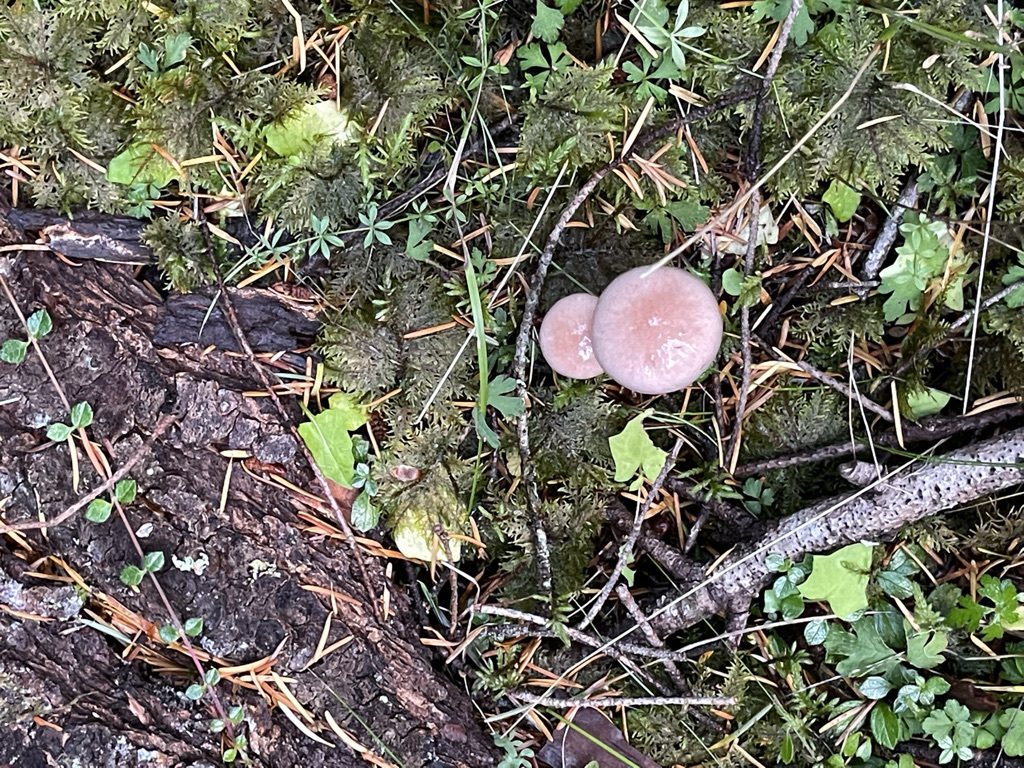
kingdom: Fungi
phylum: Basidiomycota
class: Agaricomycetes
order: Boletales
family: Gomphidiaceae
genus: Gomphidius
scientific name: Gomphidius subroseus
